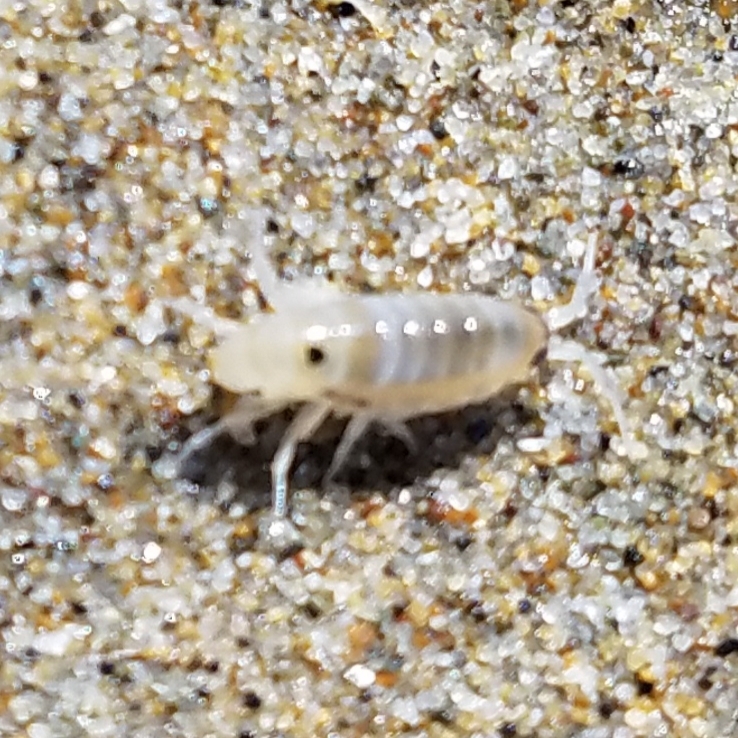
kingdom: Animalia
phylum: Arthropoda
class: Malacostraca
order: Amphipoda
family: Talitridae
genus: Megalorchestia
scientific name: Megalorchestia columbiana
